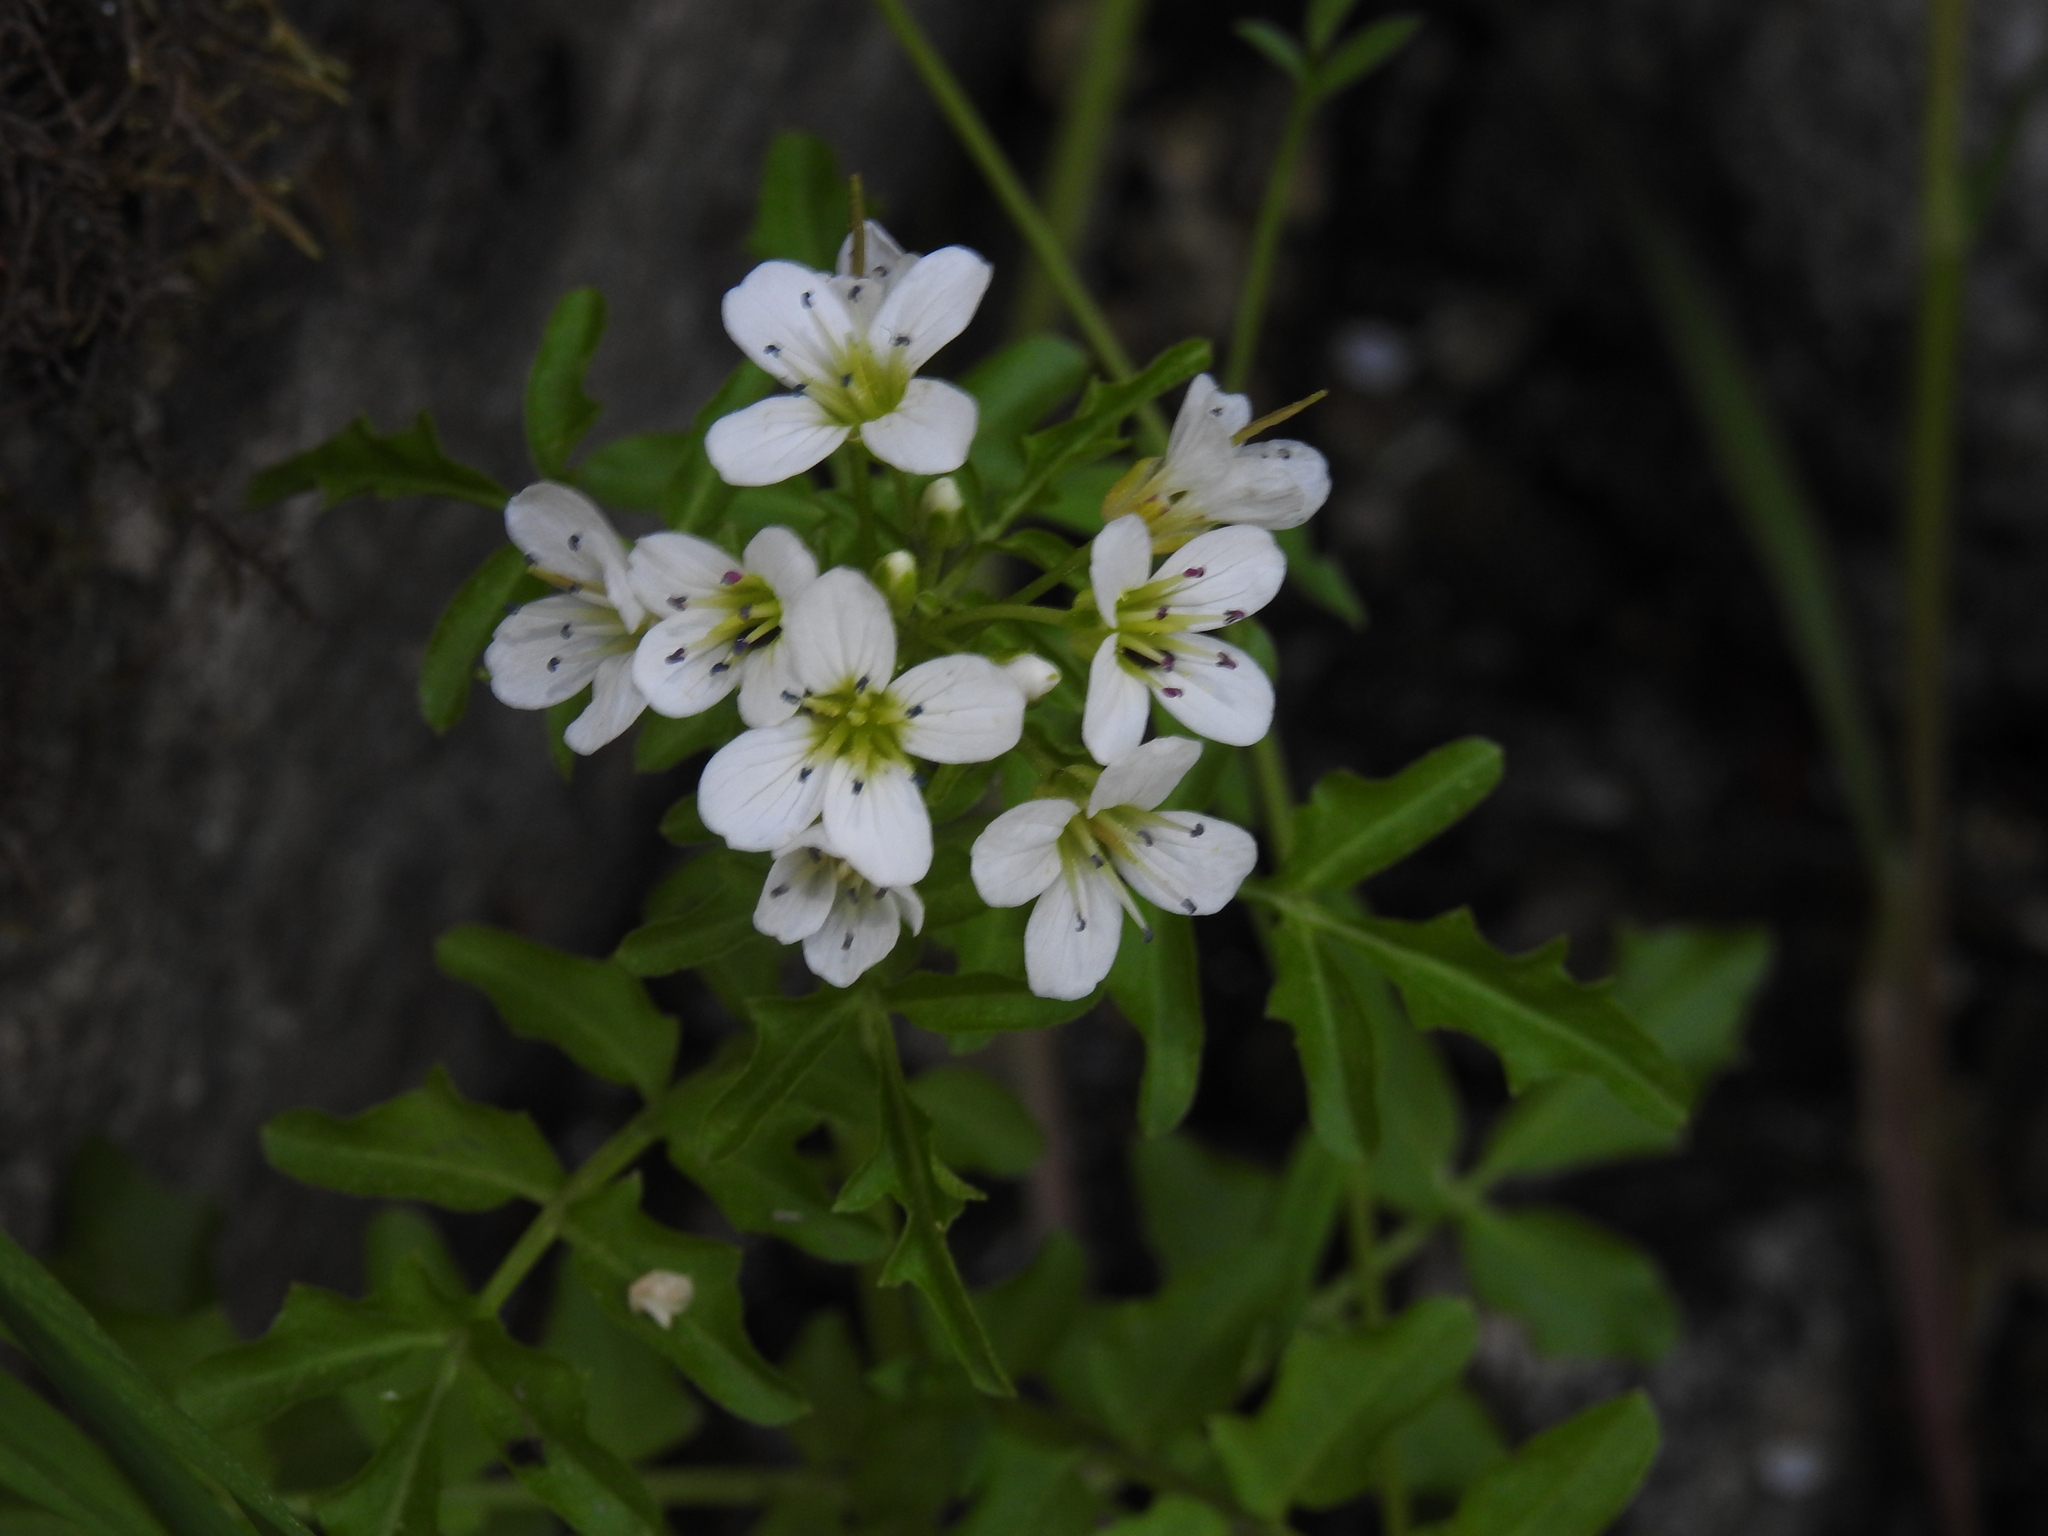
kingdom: Plantae
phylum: Tracheophyta
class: Magnoliopsida
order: Brassicales
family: Brassicaceae
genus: Cardamine
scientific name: Cardamine amara
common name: Large bitter-cress
